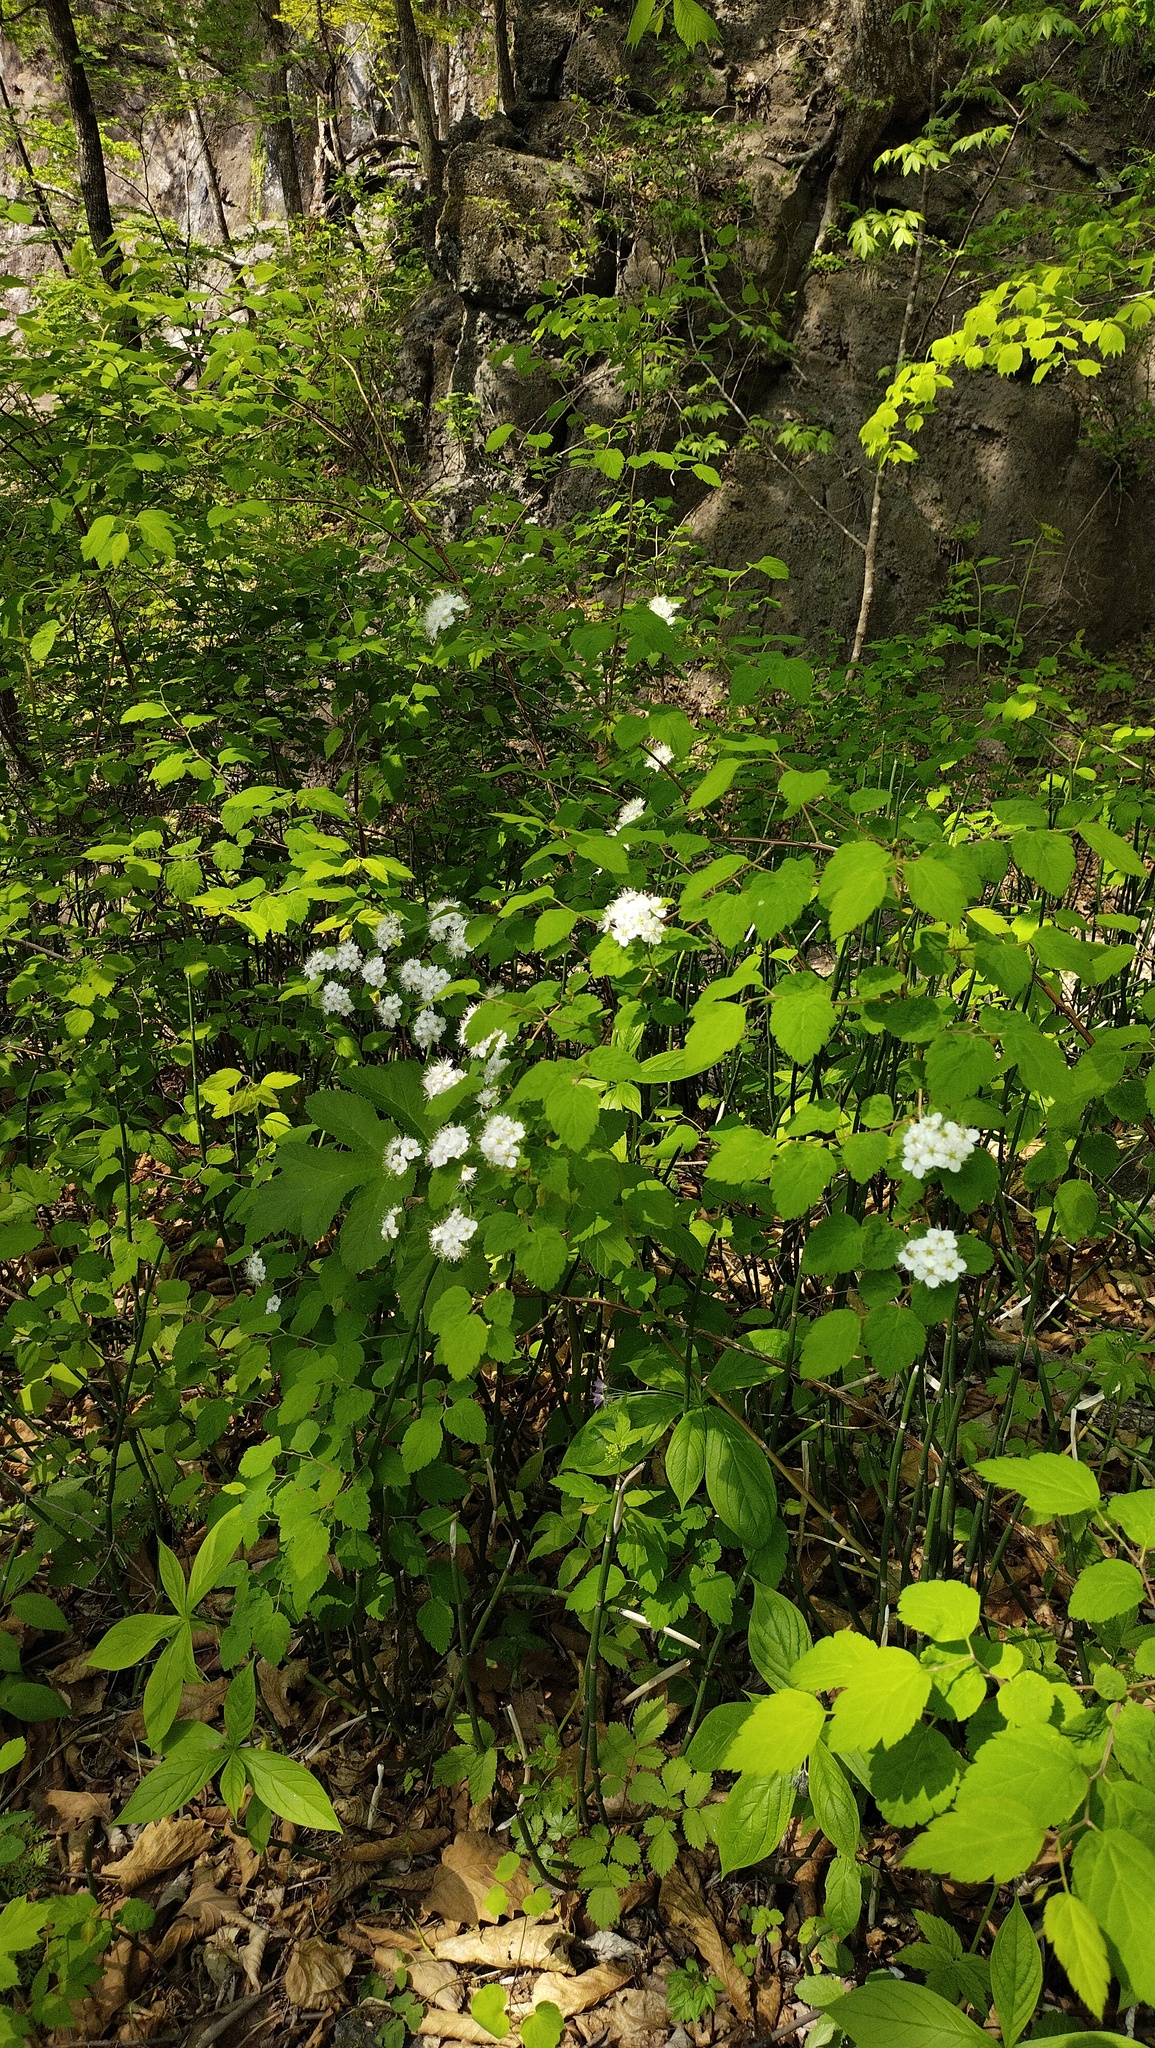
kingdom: Plantae
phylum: Tracheophyta
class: Magnoliopsida
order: Rosales
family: Rosaceae
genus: Spiraea
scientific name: Spiraea chamaedryfolia
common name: Elm-leaved spiraea
